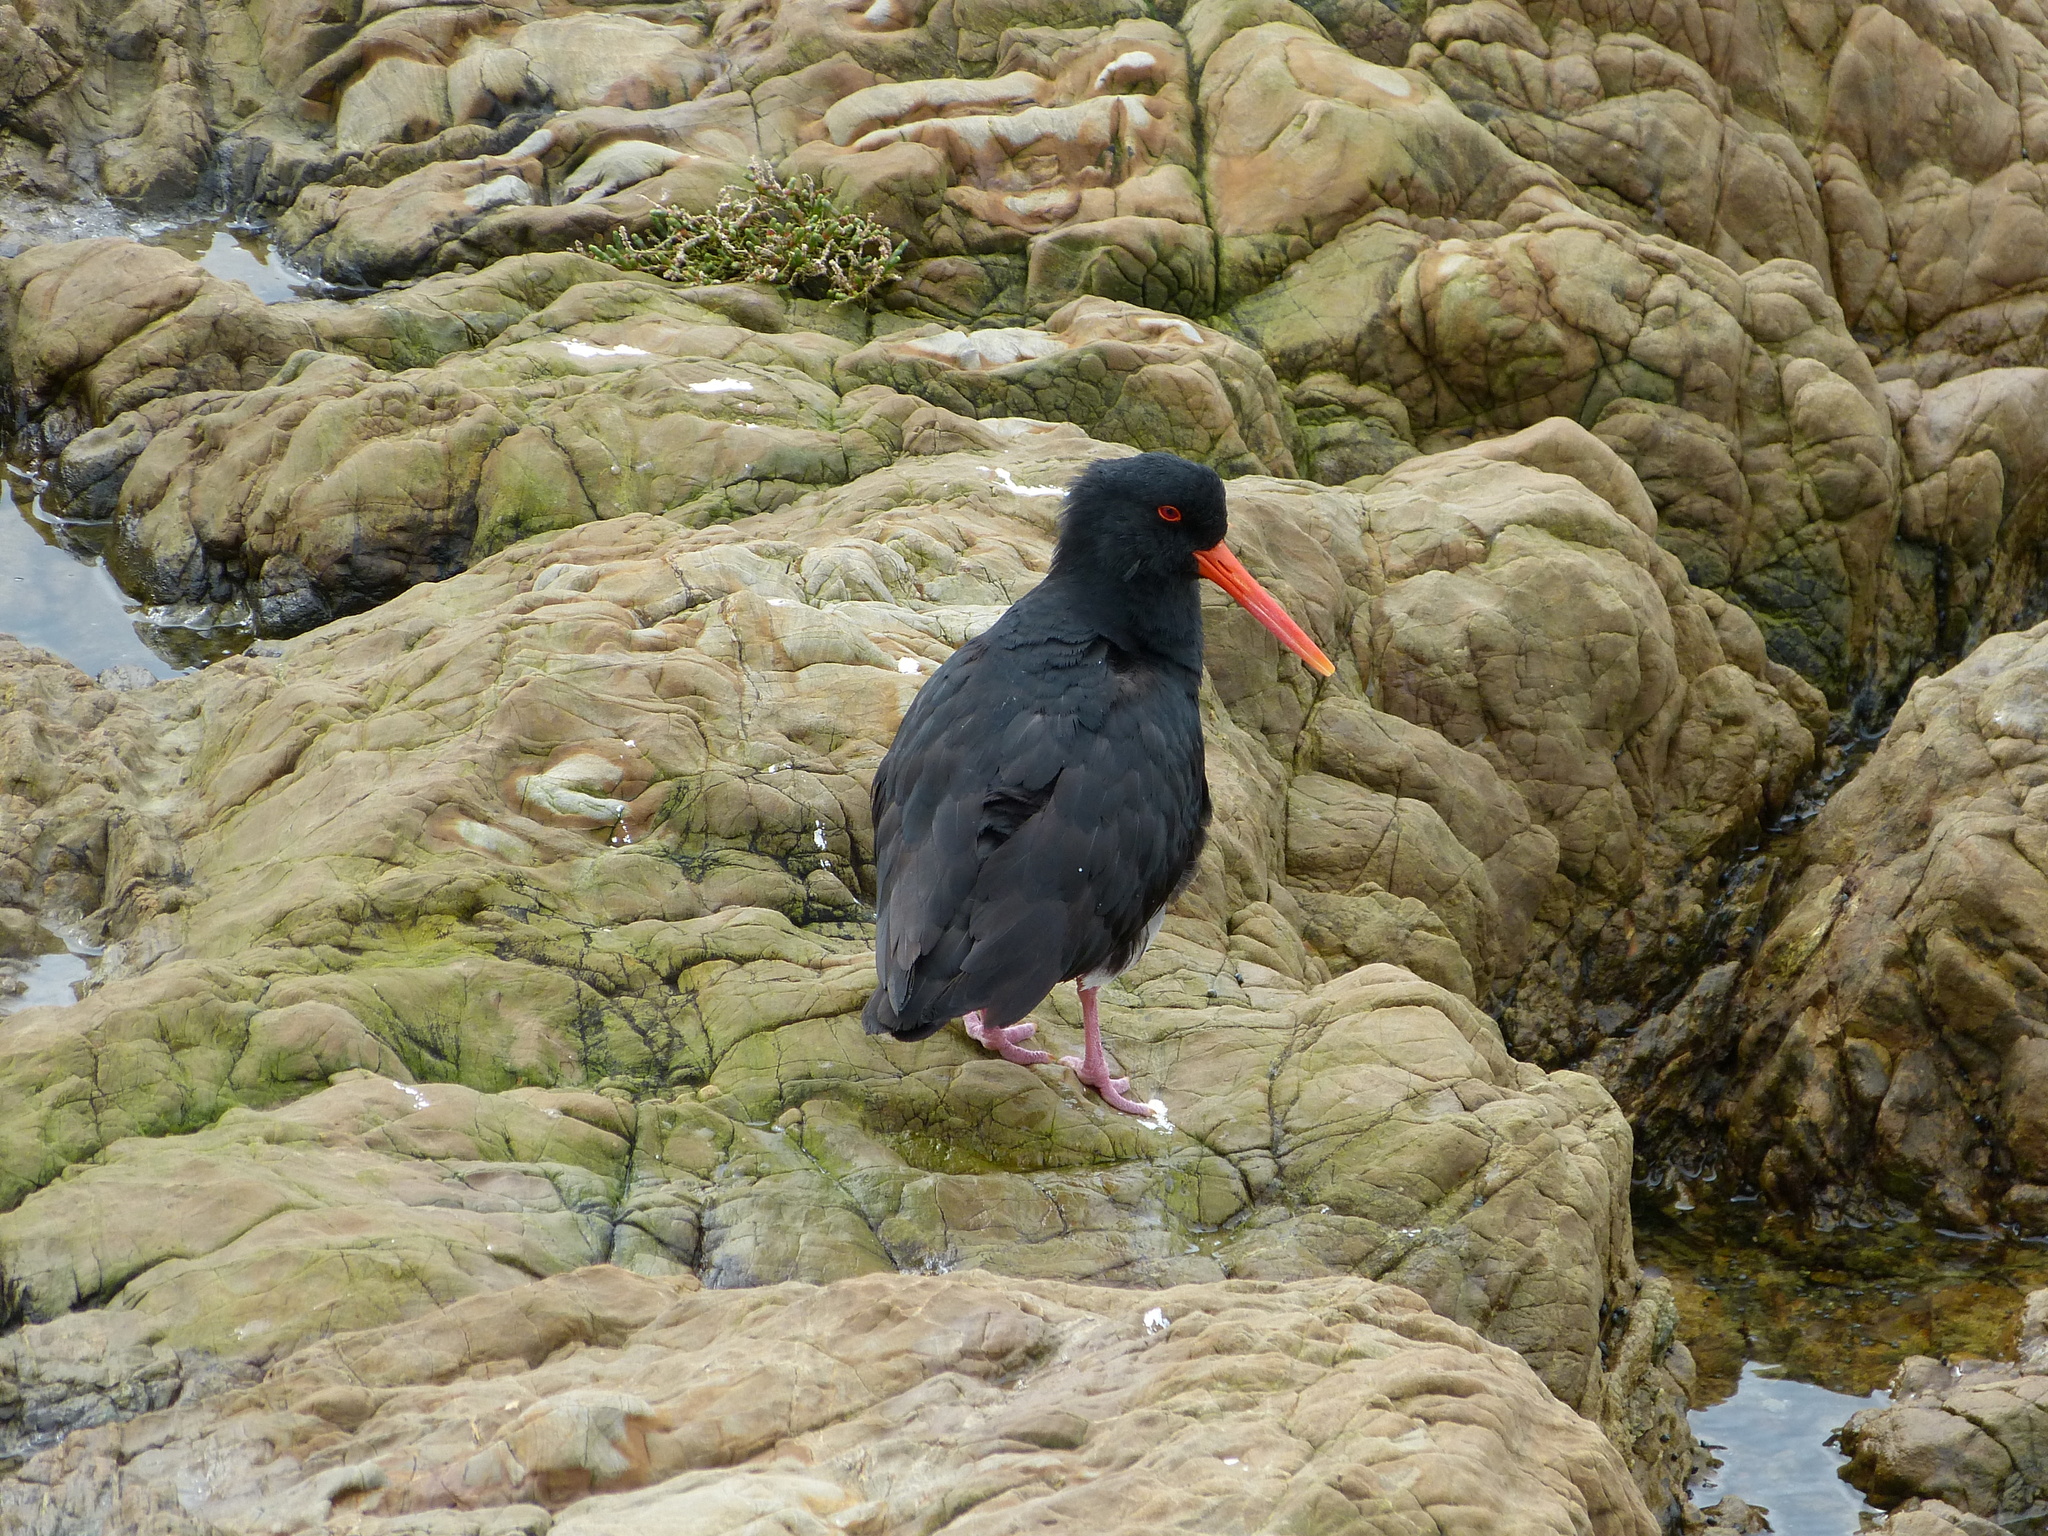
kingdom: Animalia
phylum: Chordata
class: Aves
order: Charadriiformes
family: Haematopodidae
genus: Haematopus
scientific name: Haematopus unicolor
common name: Variable oystercatcher
